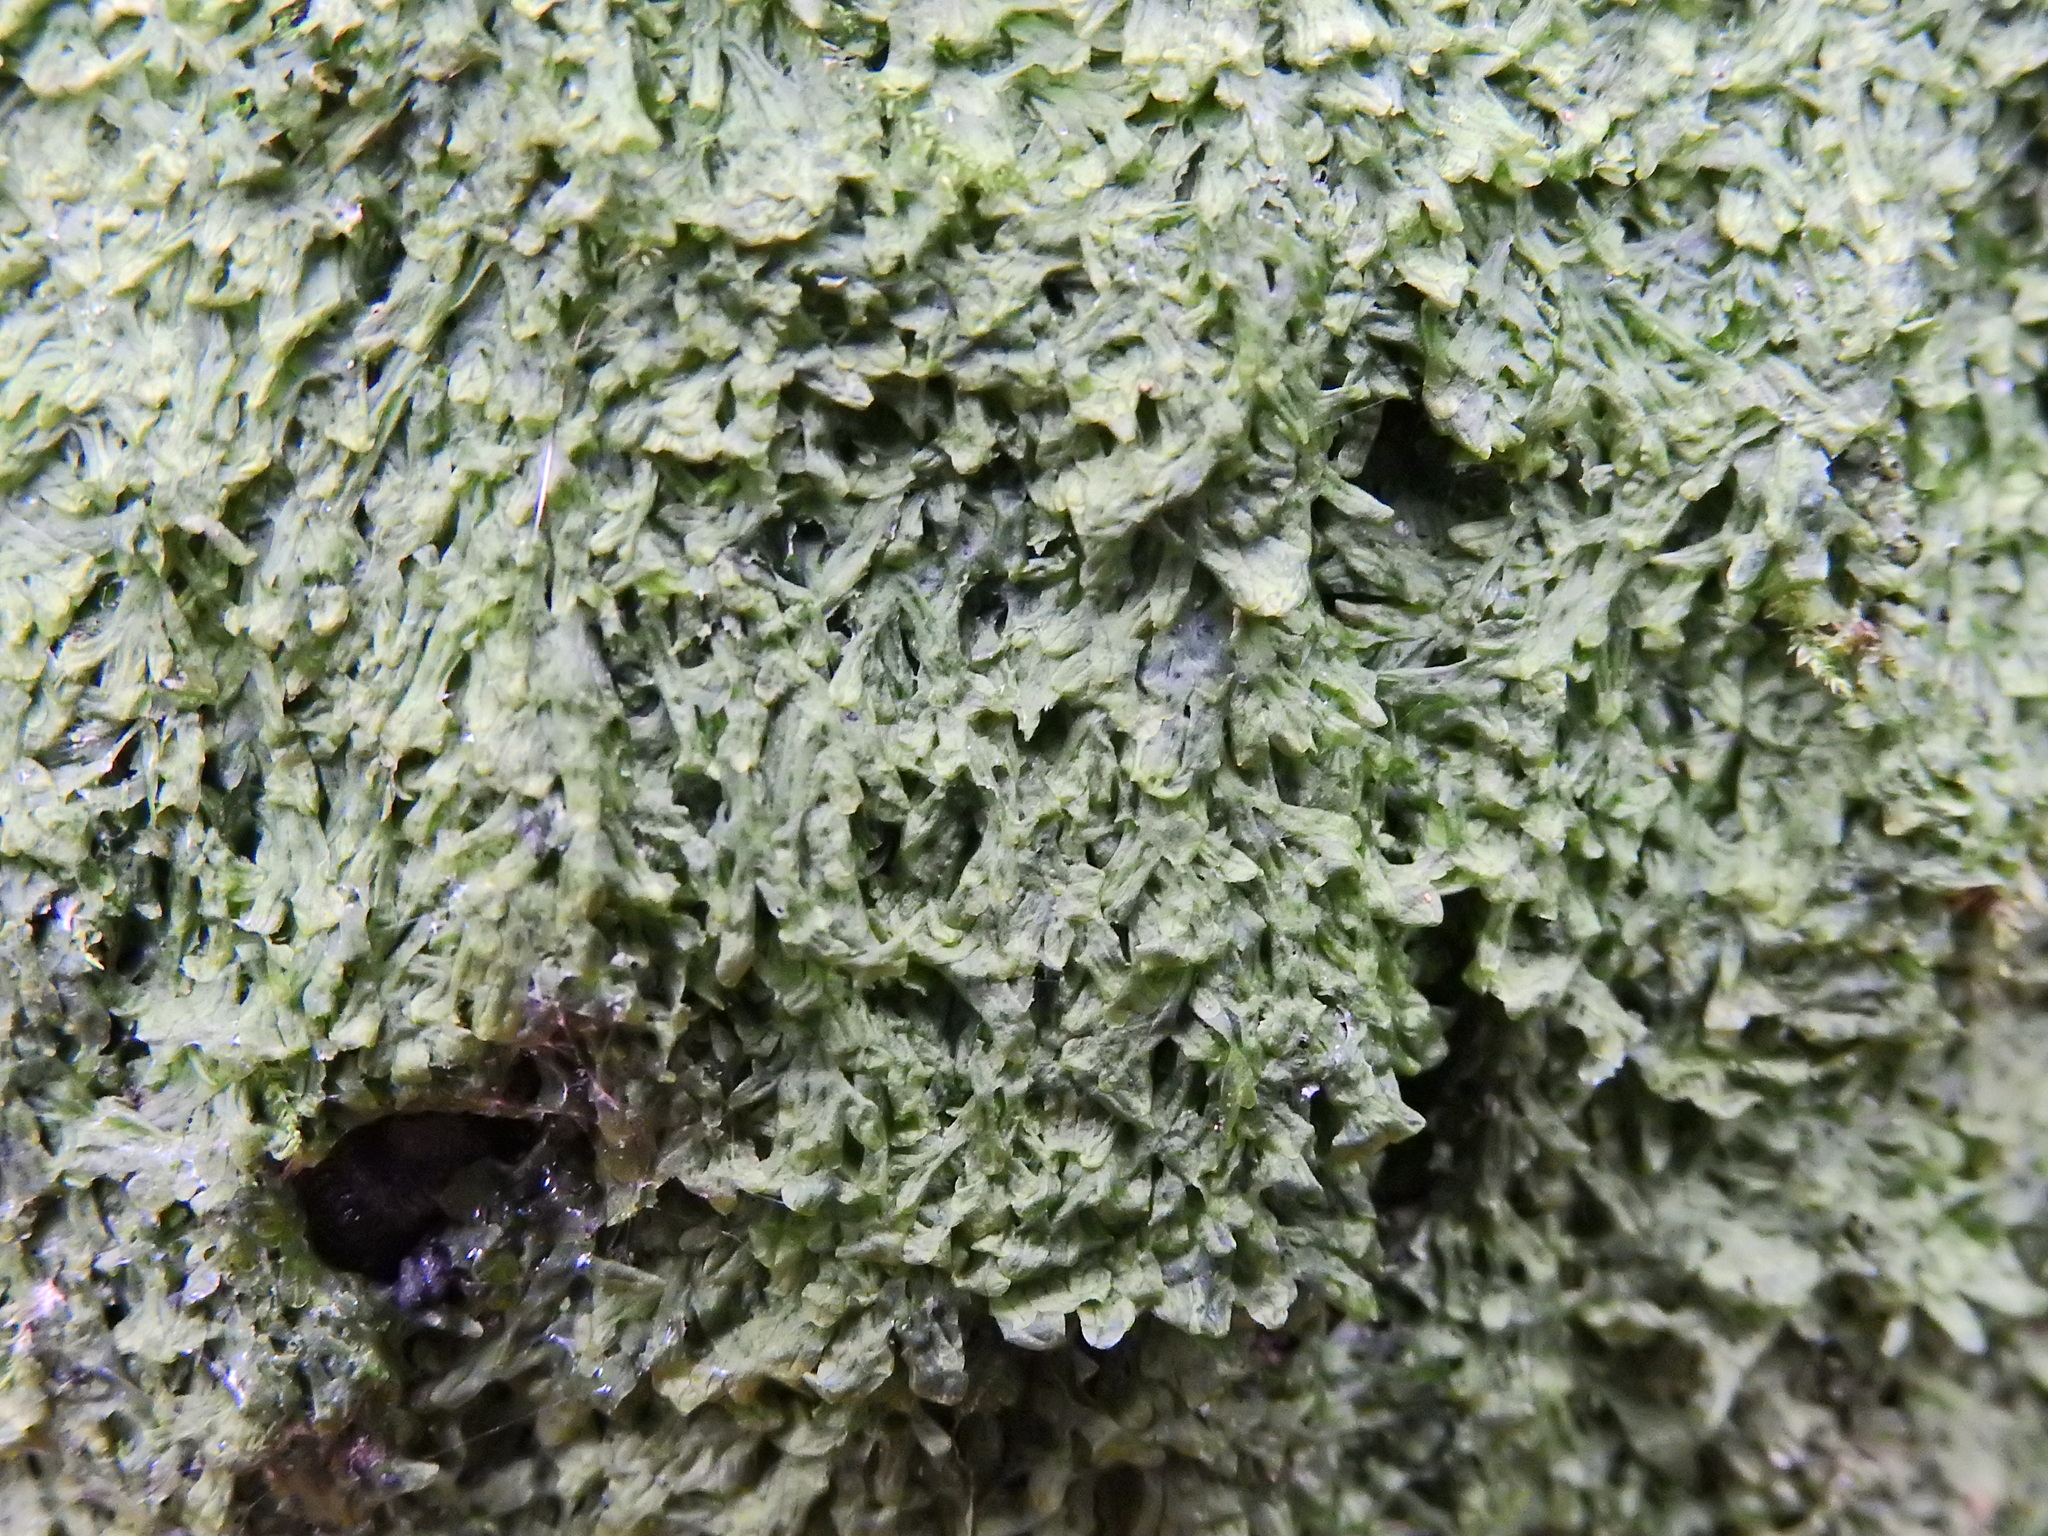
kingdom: Plantae
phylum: Marchantiophyta
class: Jungermanniopsida
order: Metzgeriales
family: Metzgeriaceae
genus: Metzgeria
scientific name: Metzgeria furcata
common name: Forked veilwort
